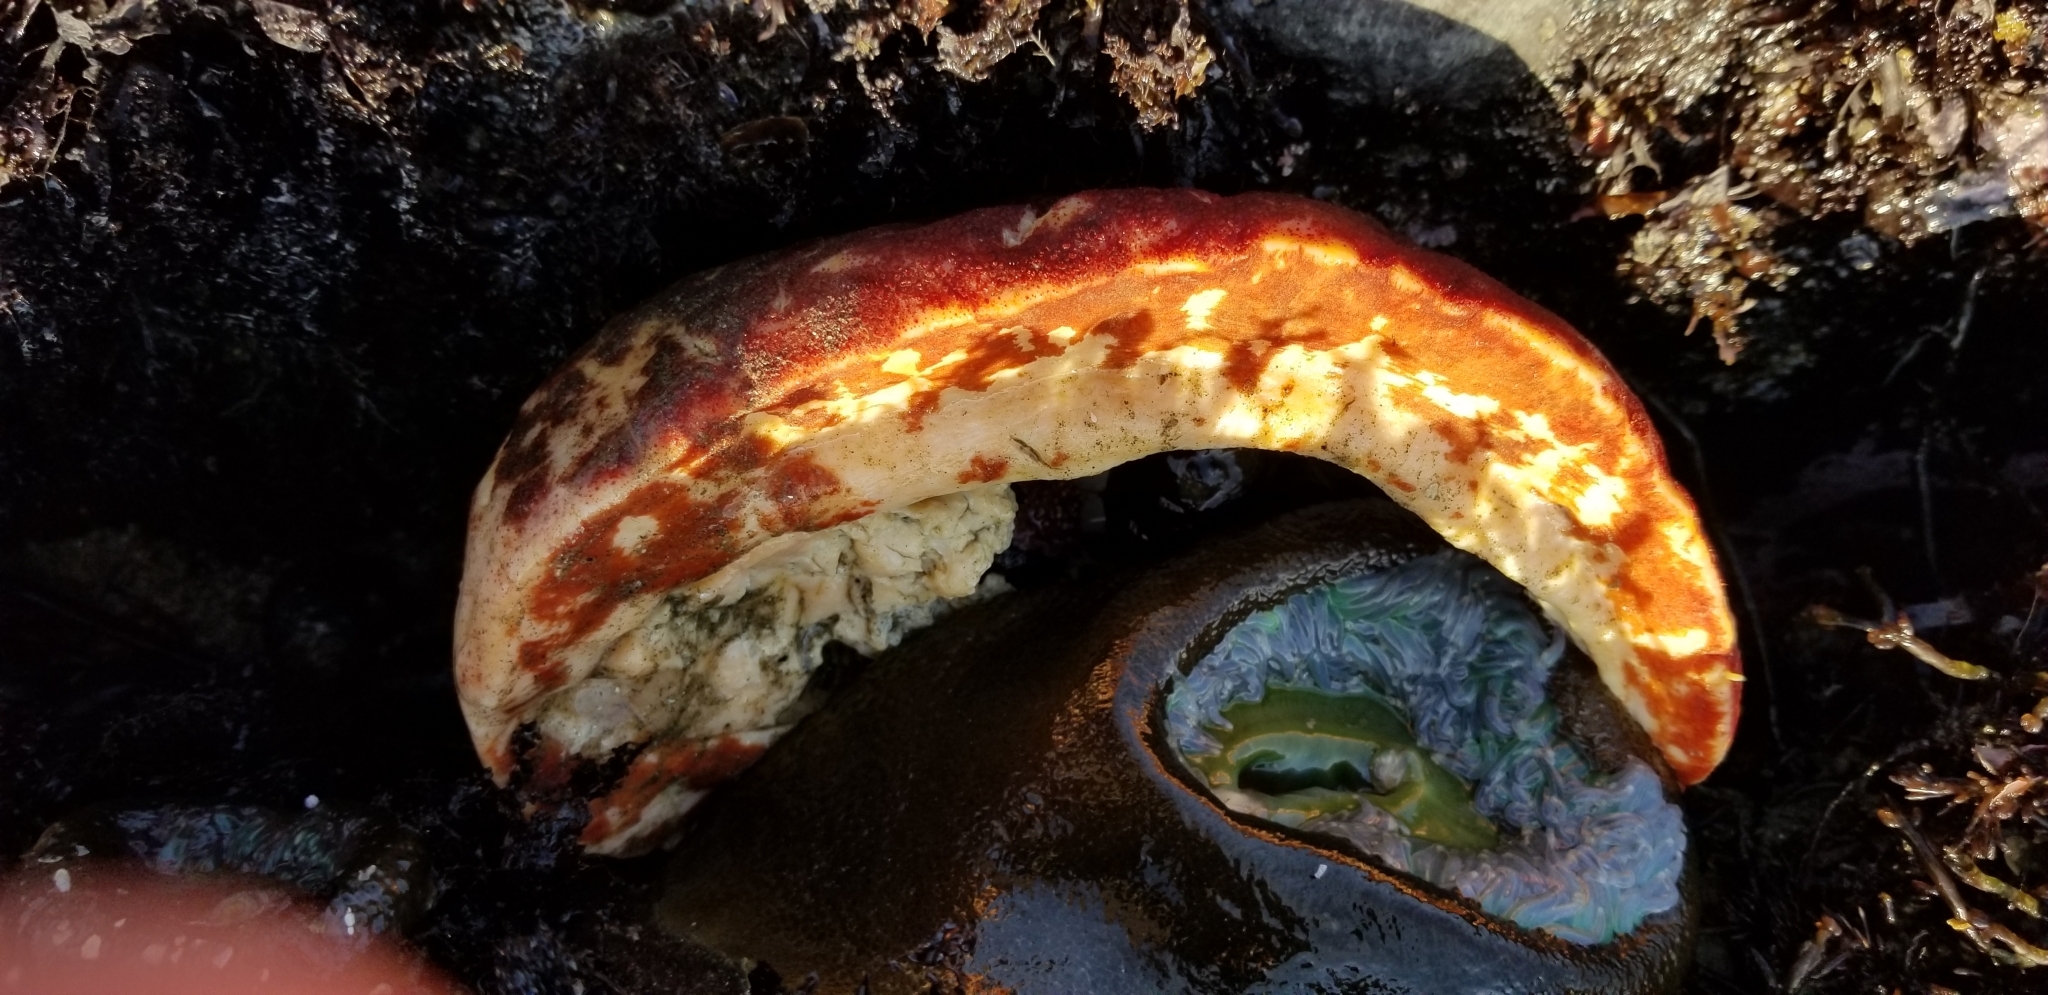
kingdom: Animalia
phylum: Mollusca
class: Polyplacophora
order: Chitonida
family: Acanthochitonidae
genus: Cryptochiton
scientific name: Cryptochiton stelleri
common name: Giant pacific chiton
